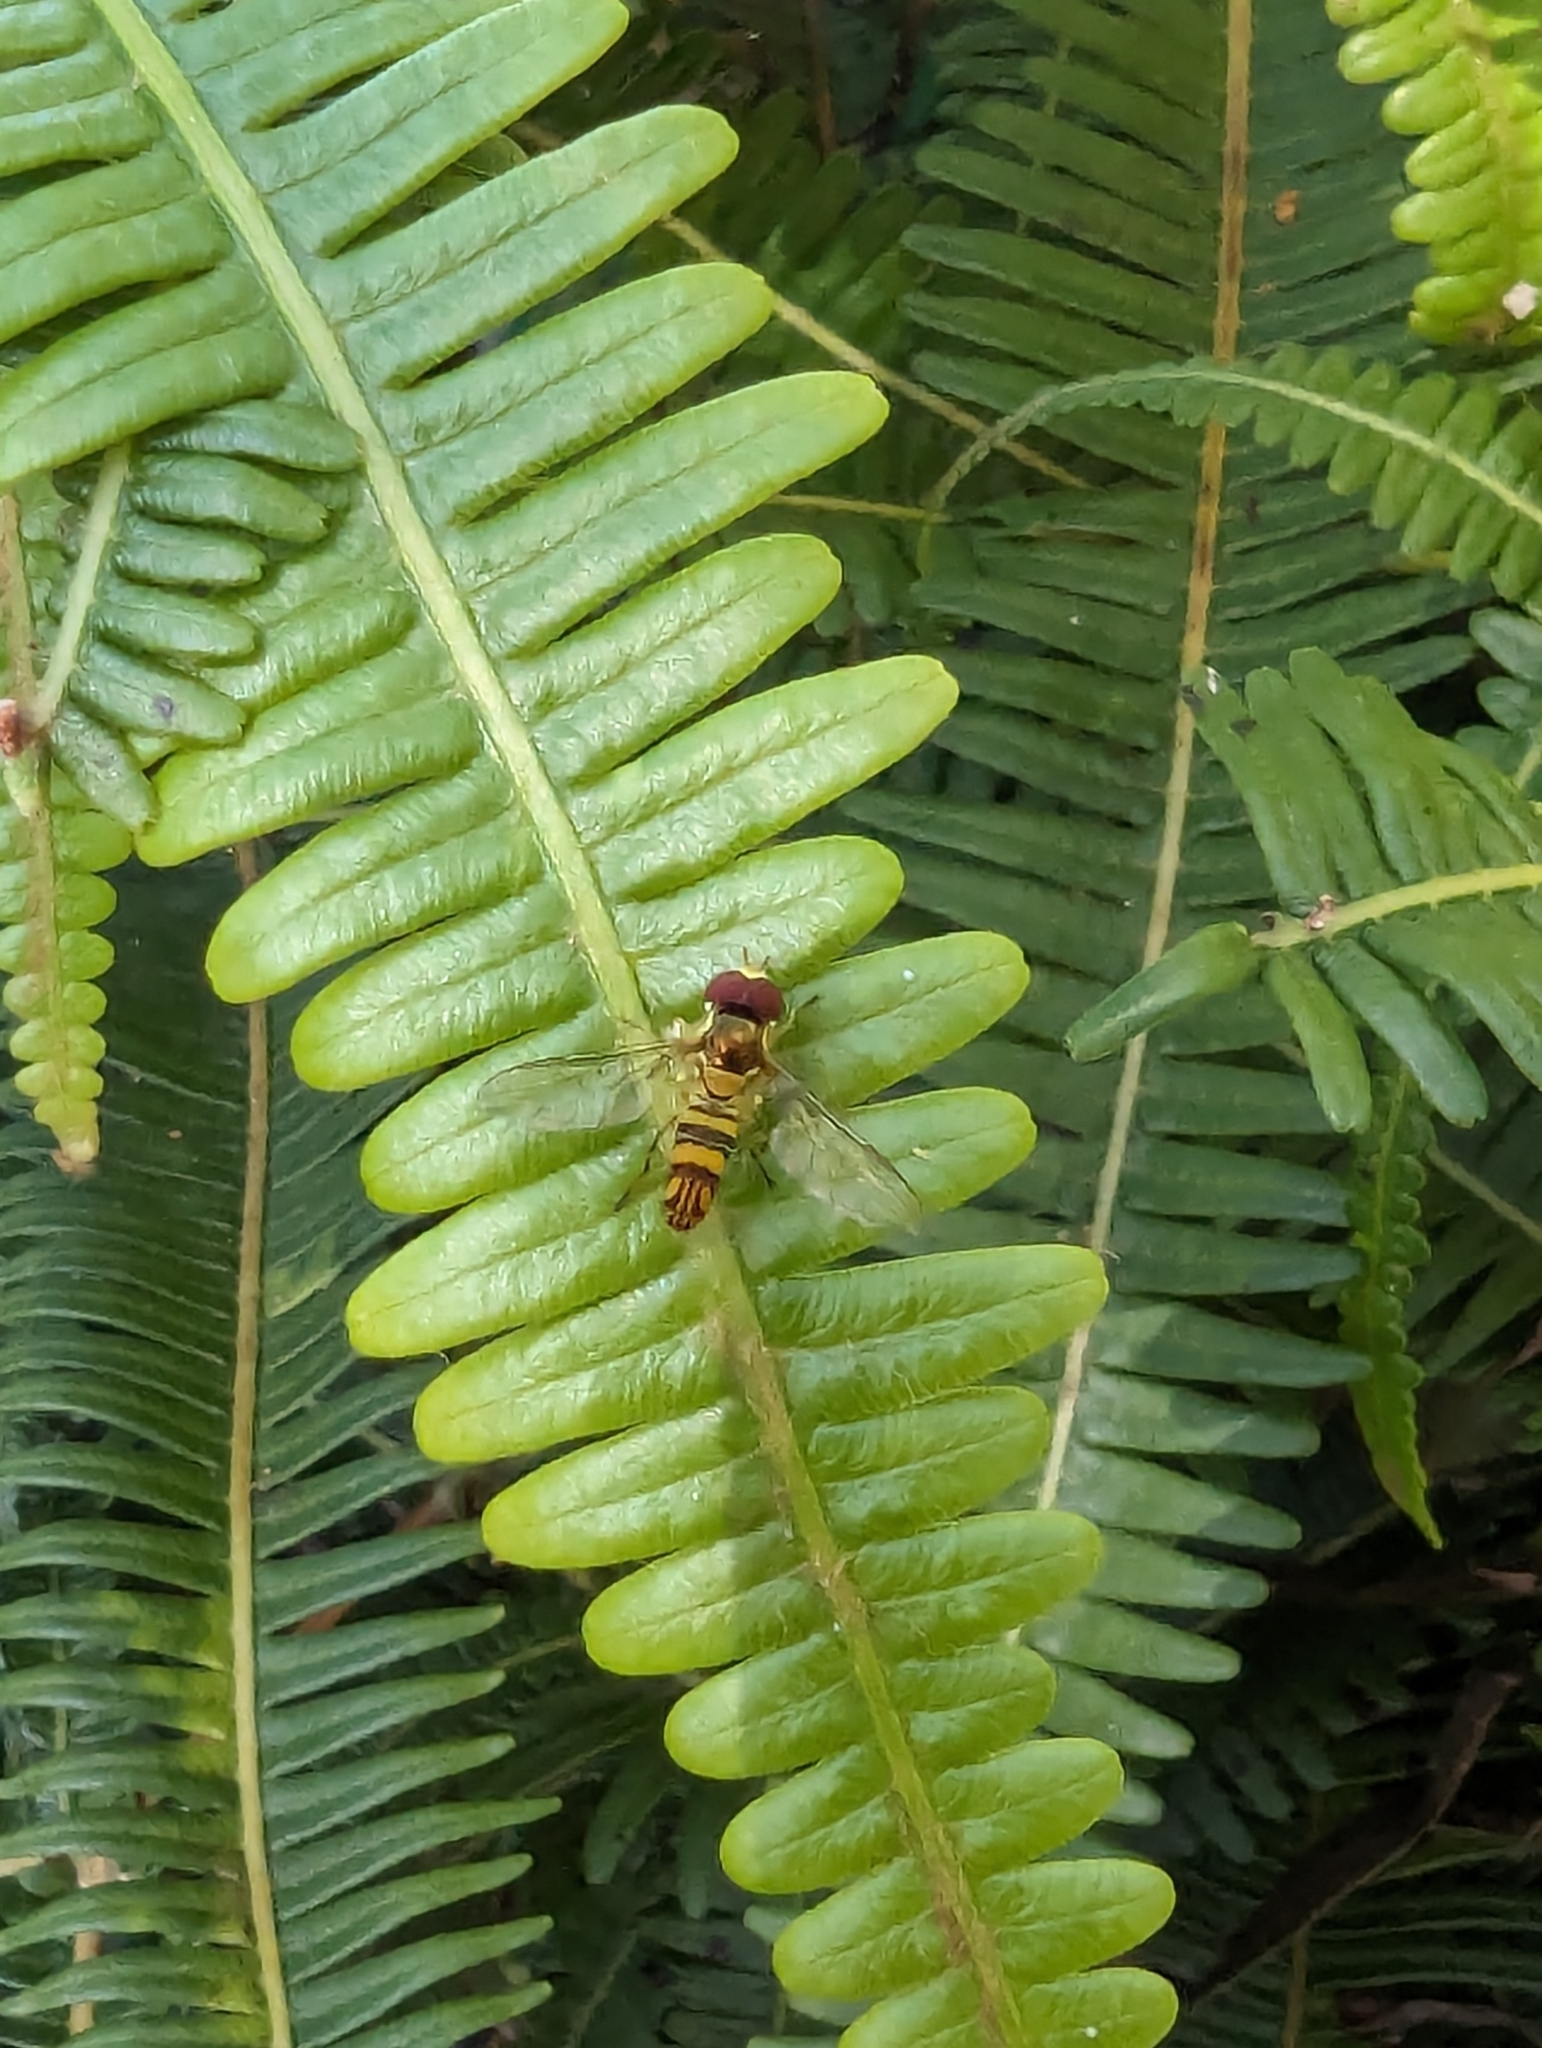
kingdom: Animalia
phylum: Arthropoda
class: Insecta
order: Diptera
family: Syrphidae
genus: Allograpta
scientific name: Allograpta obliqua
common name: Common oblique syrphid
